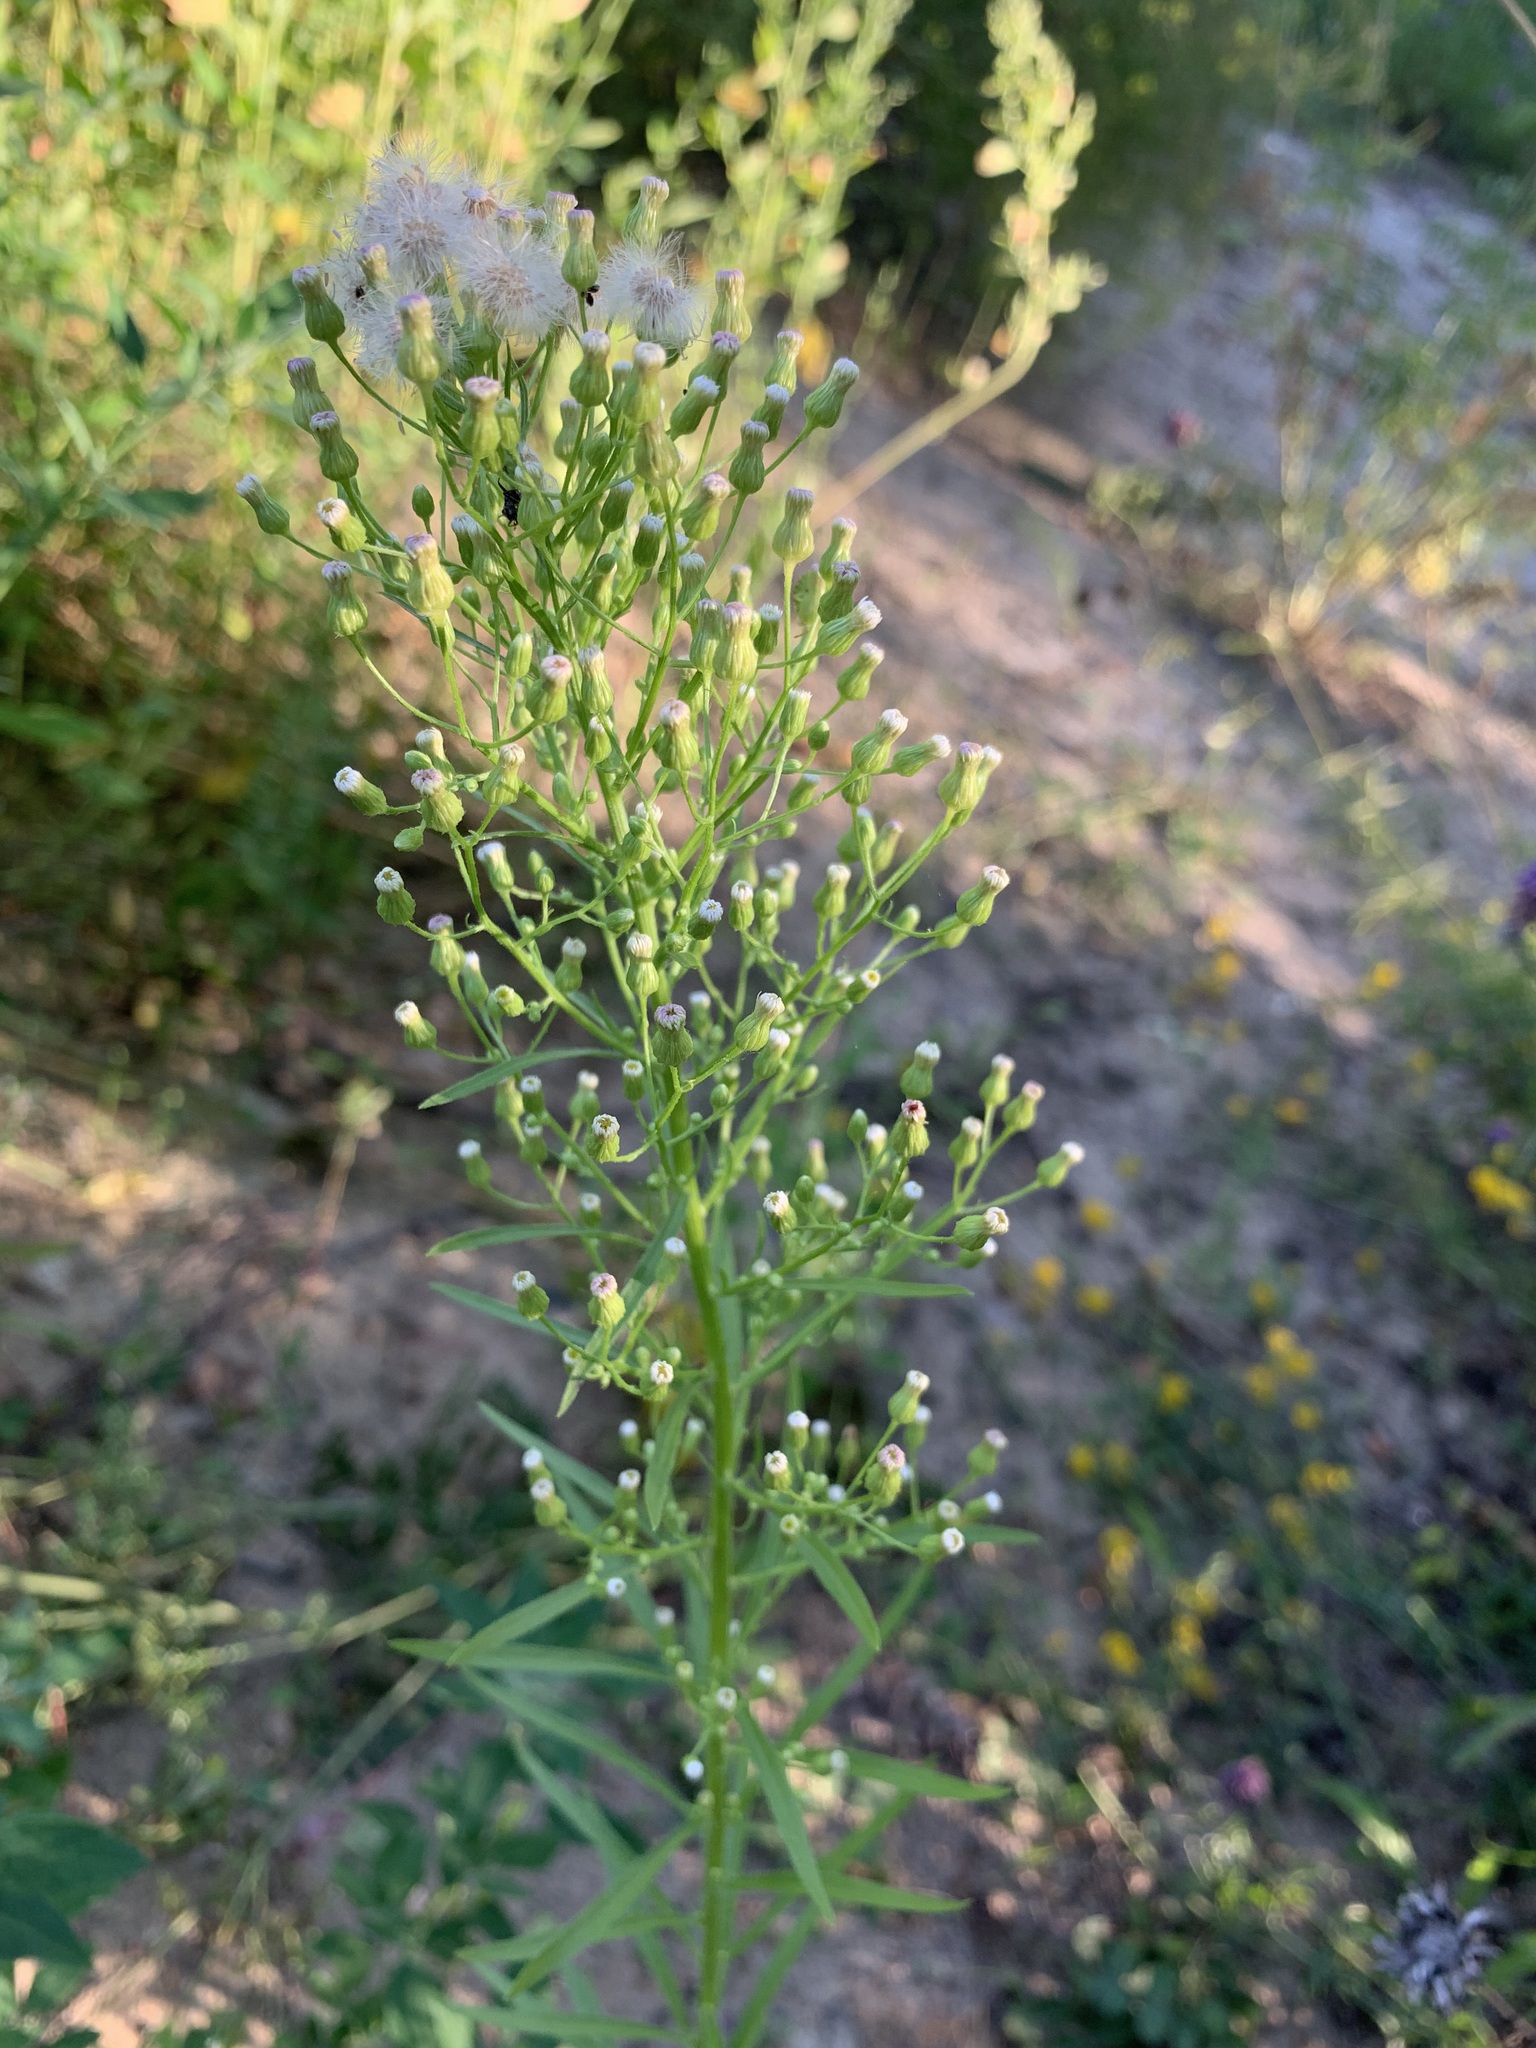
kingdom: Plantae
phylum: Tracheophyta
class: Magnoliopsida
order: Asterales
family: Asteraceae
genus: Erigeron
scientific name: Erigeron canadensis
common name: Canadian fleabane
